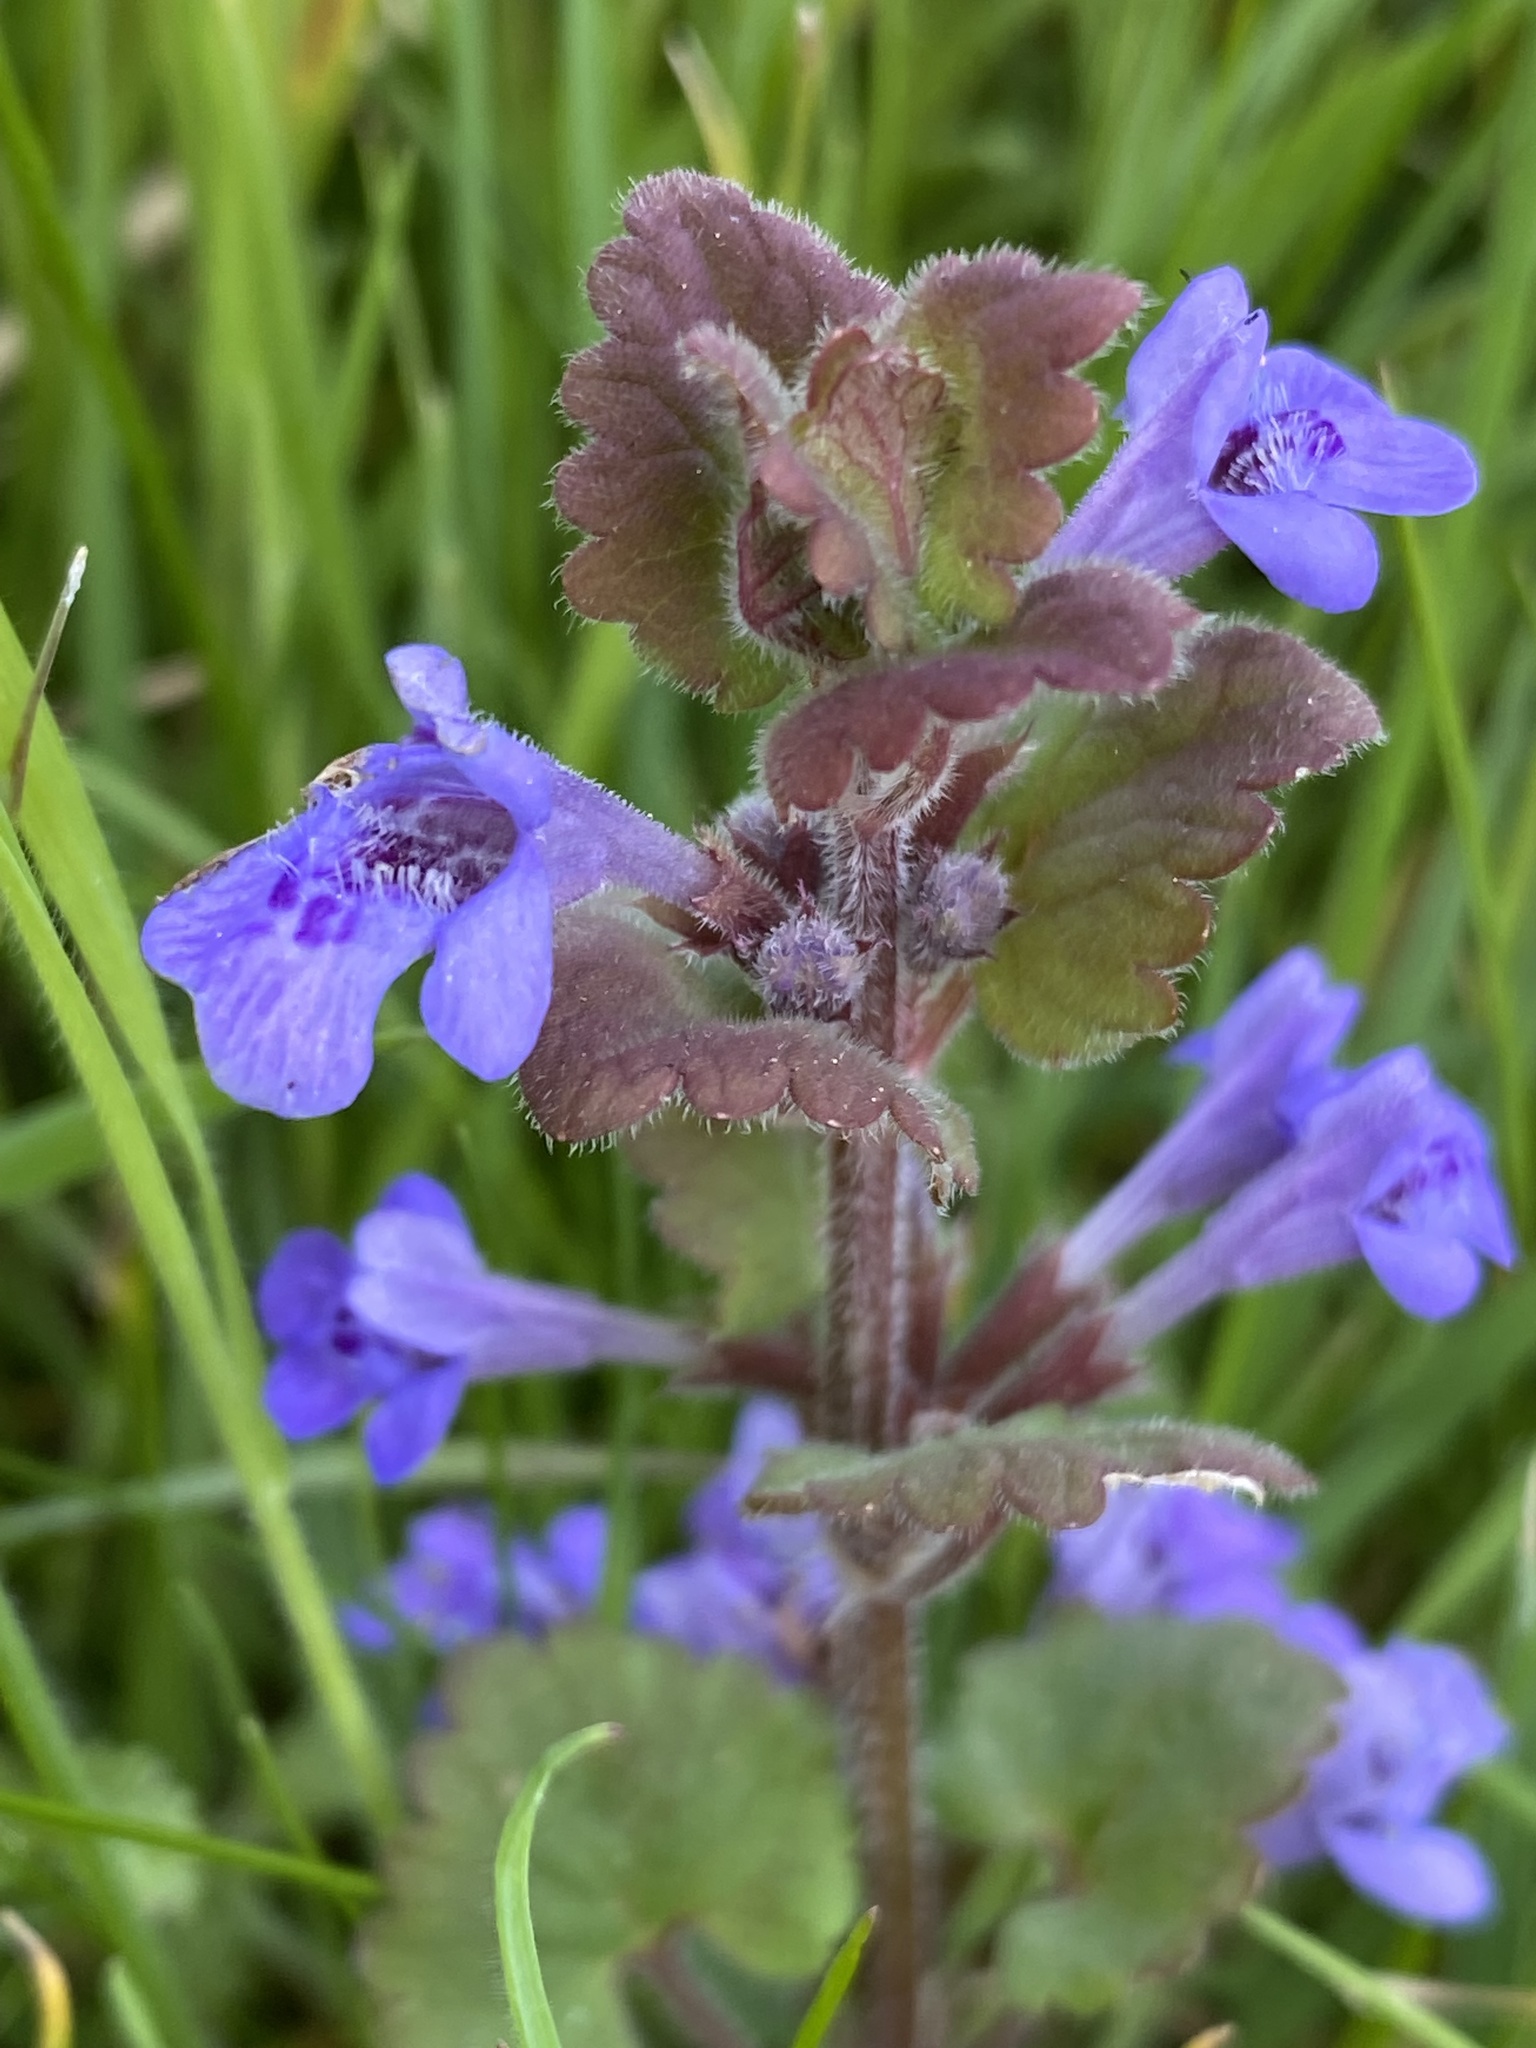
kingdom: Plantae
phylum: Tracheophyta
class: Magnoliopsida
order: Lamiales
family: Lamiaceae
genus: Glechoma
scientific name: Glechoma hederacea
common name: Ground ivy
